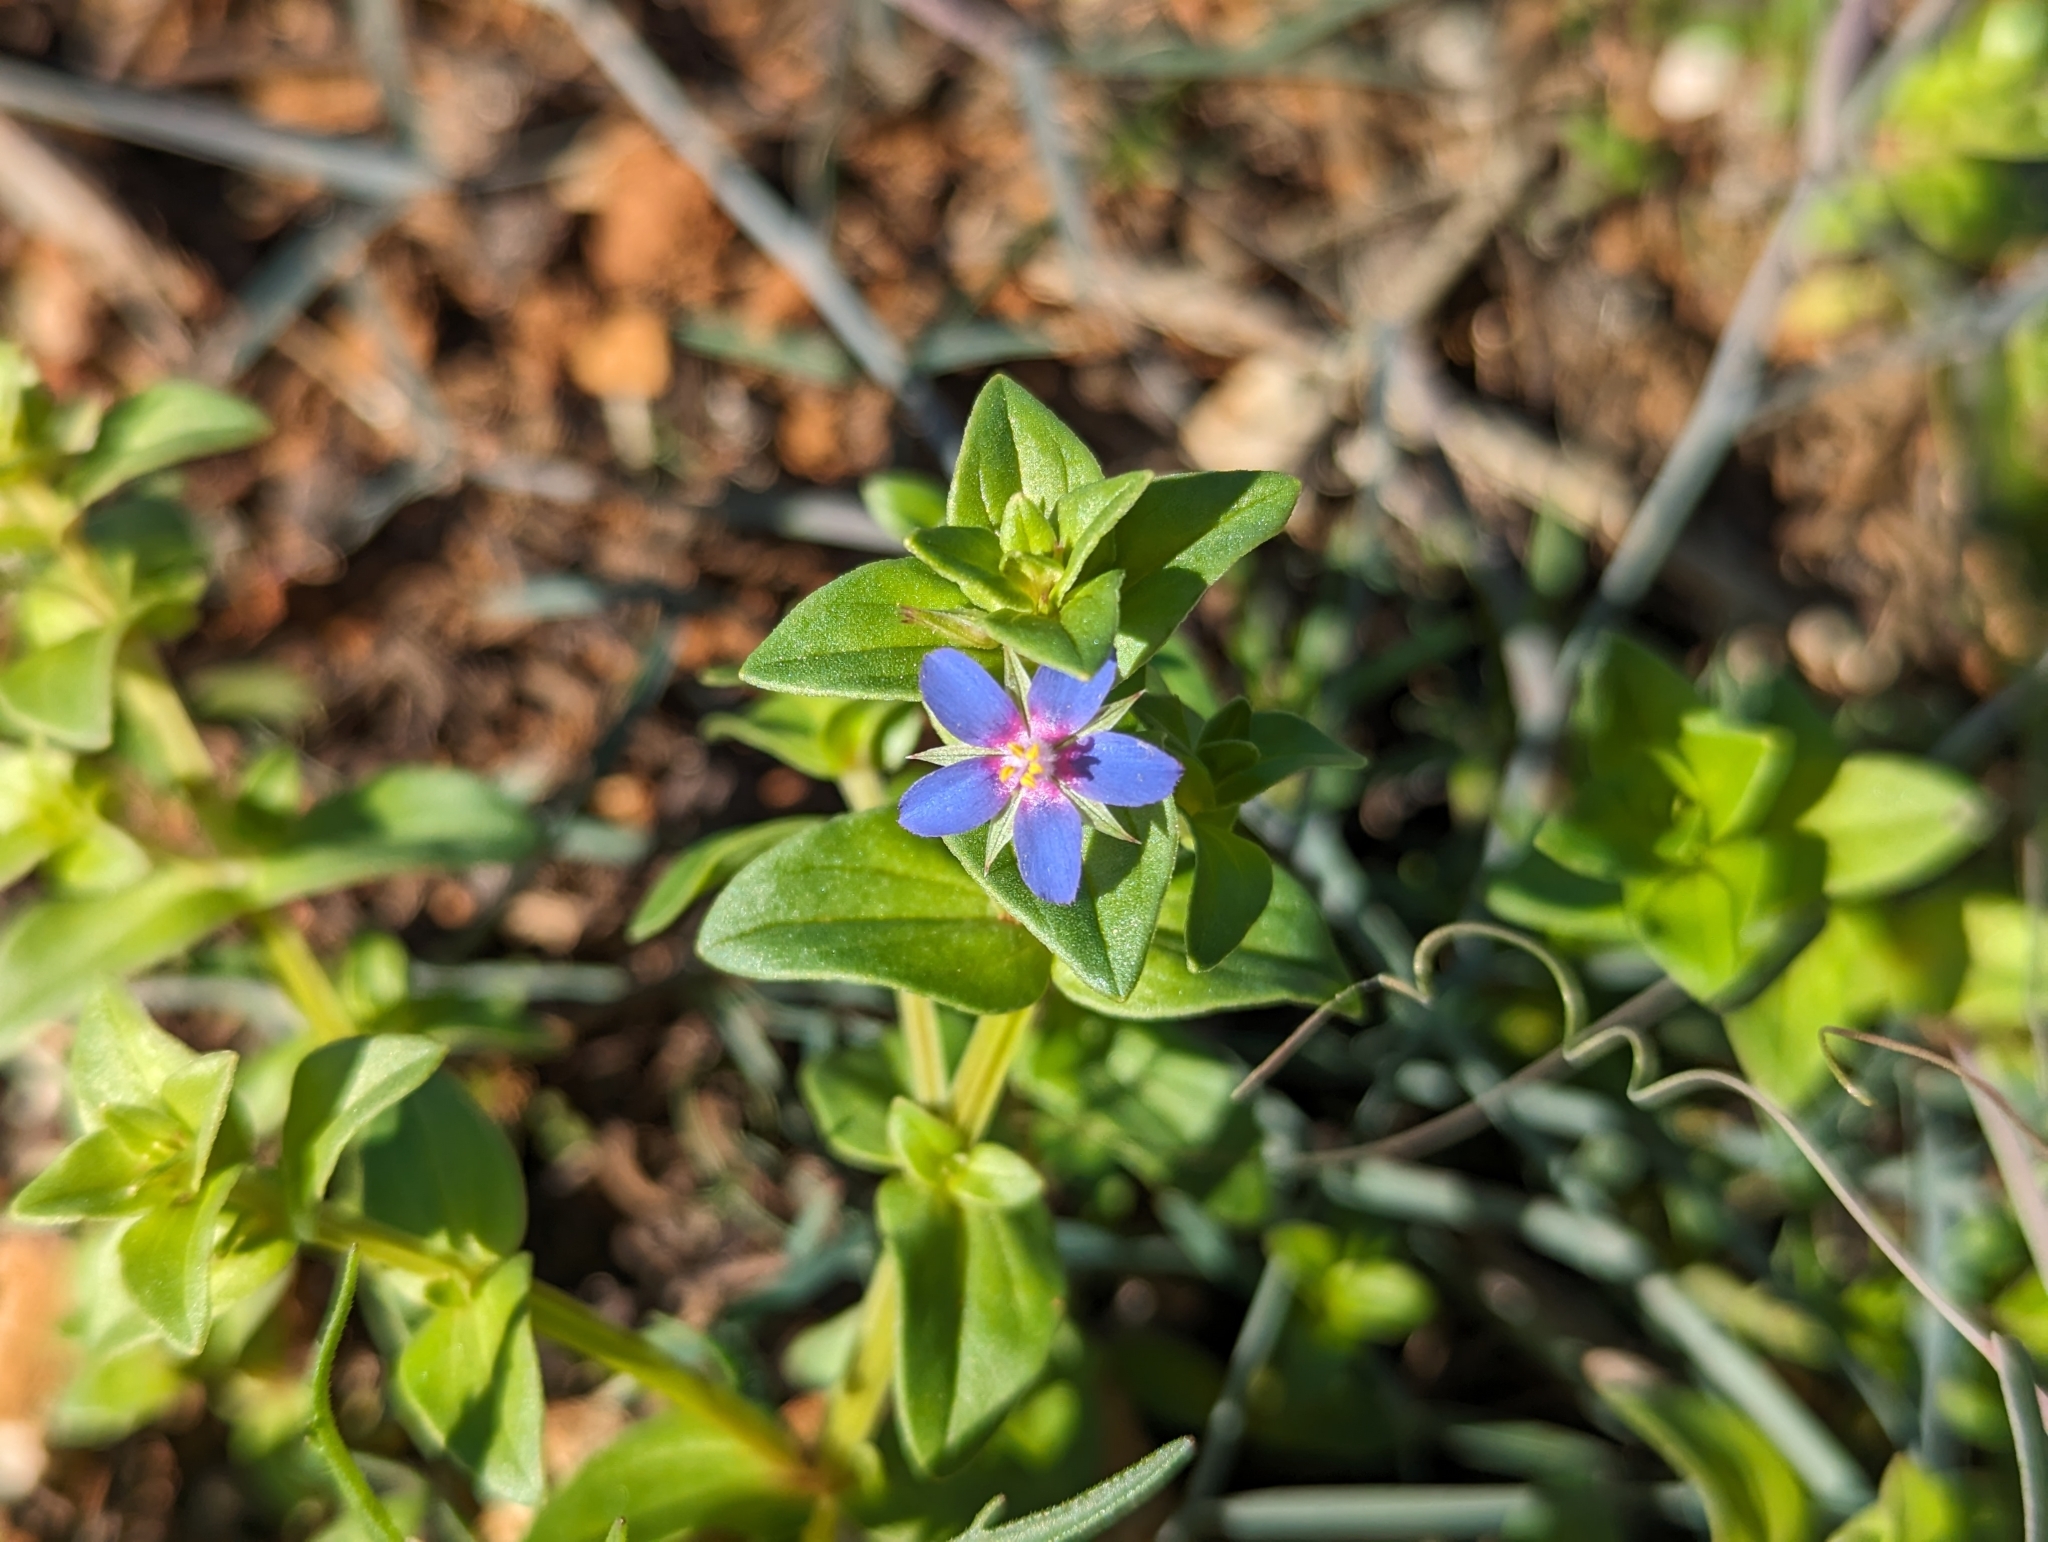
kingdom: Plantae
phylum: Tracheophyta
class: Magnoliopsida
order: Ericales
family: Primulaceae
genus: Lysimachia
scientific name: Lysimachia foemina
